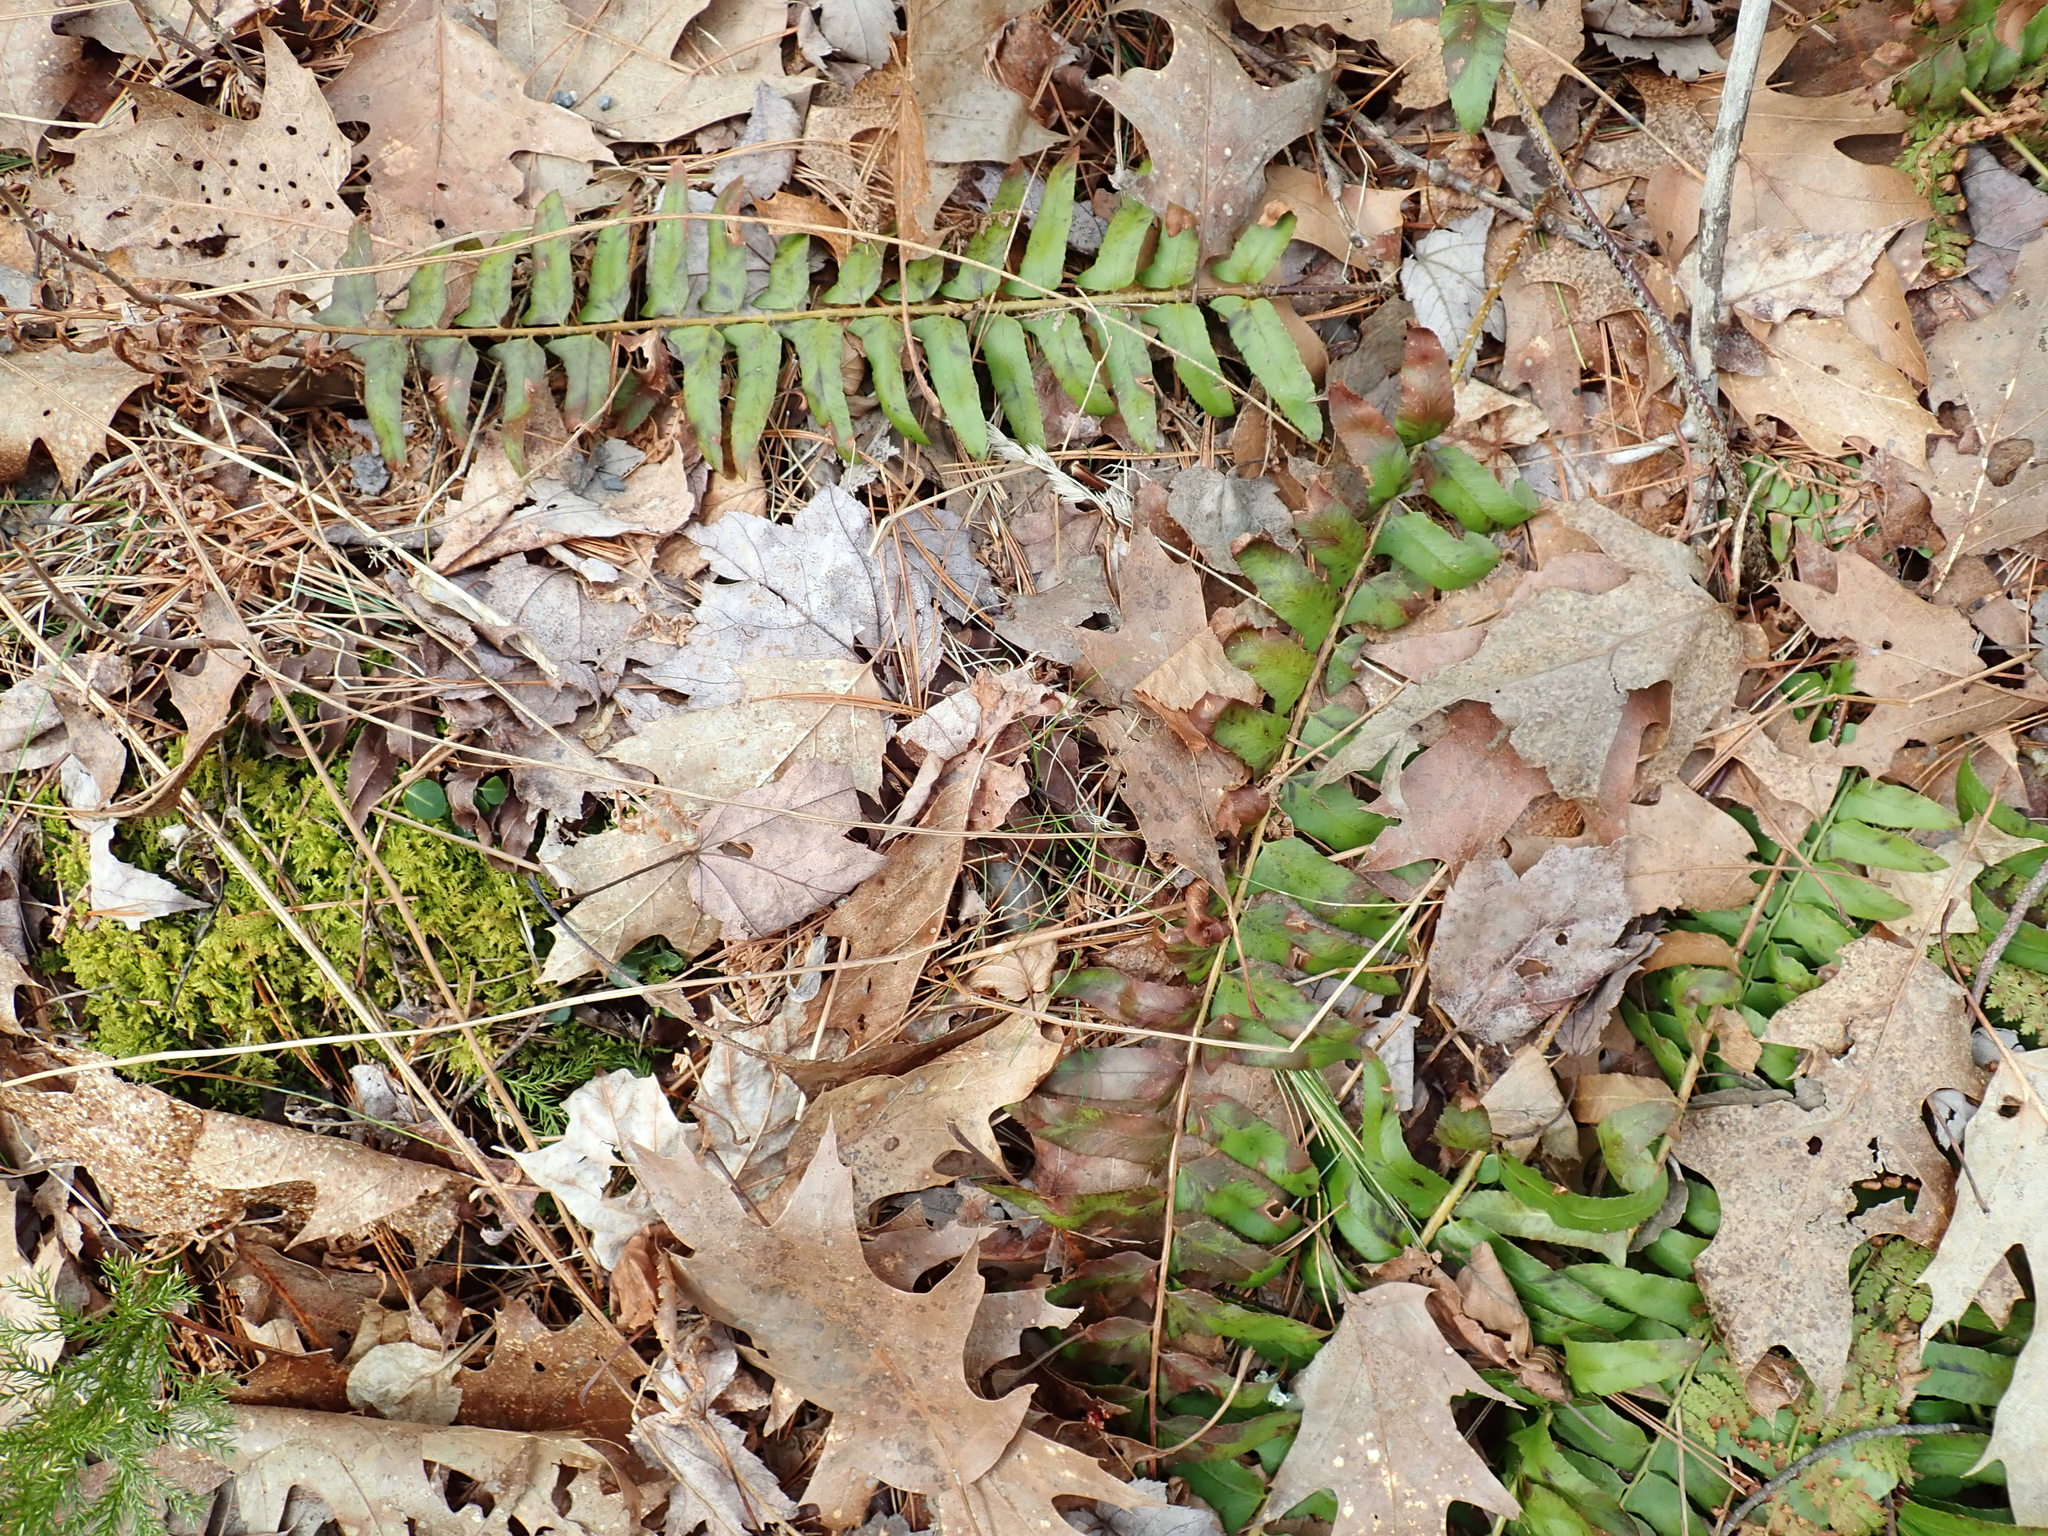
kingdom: Plantae
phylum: Tracheophyta
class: Polypodiopsida
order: Polypodiales
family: Dryopteridaceae
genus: Polystichum
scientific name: Polystichum acrostichoides
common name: Christmas fern
